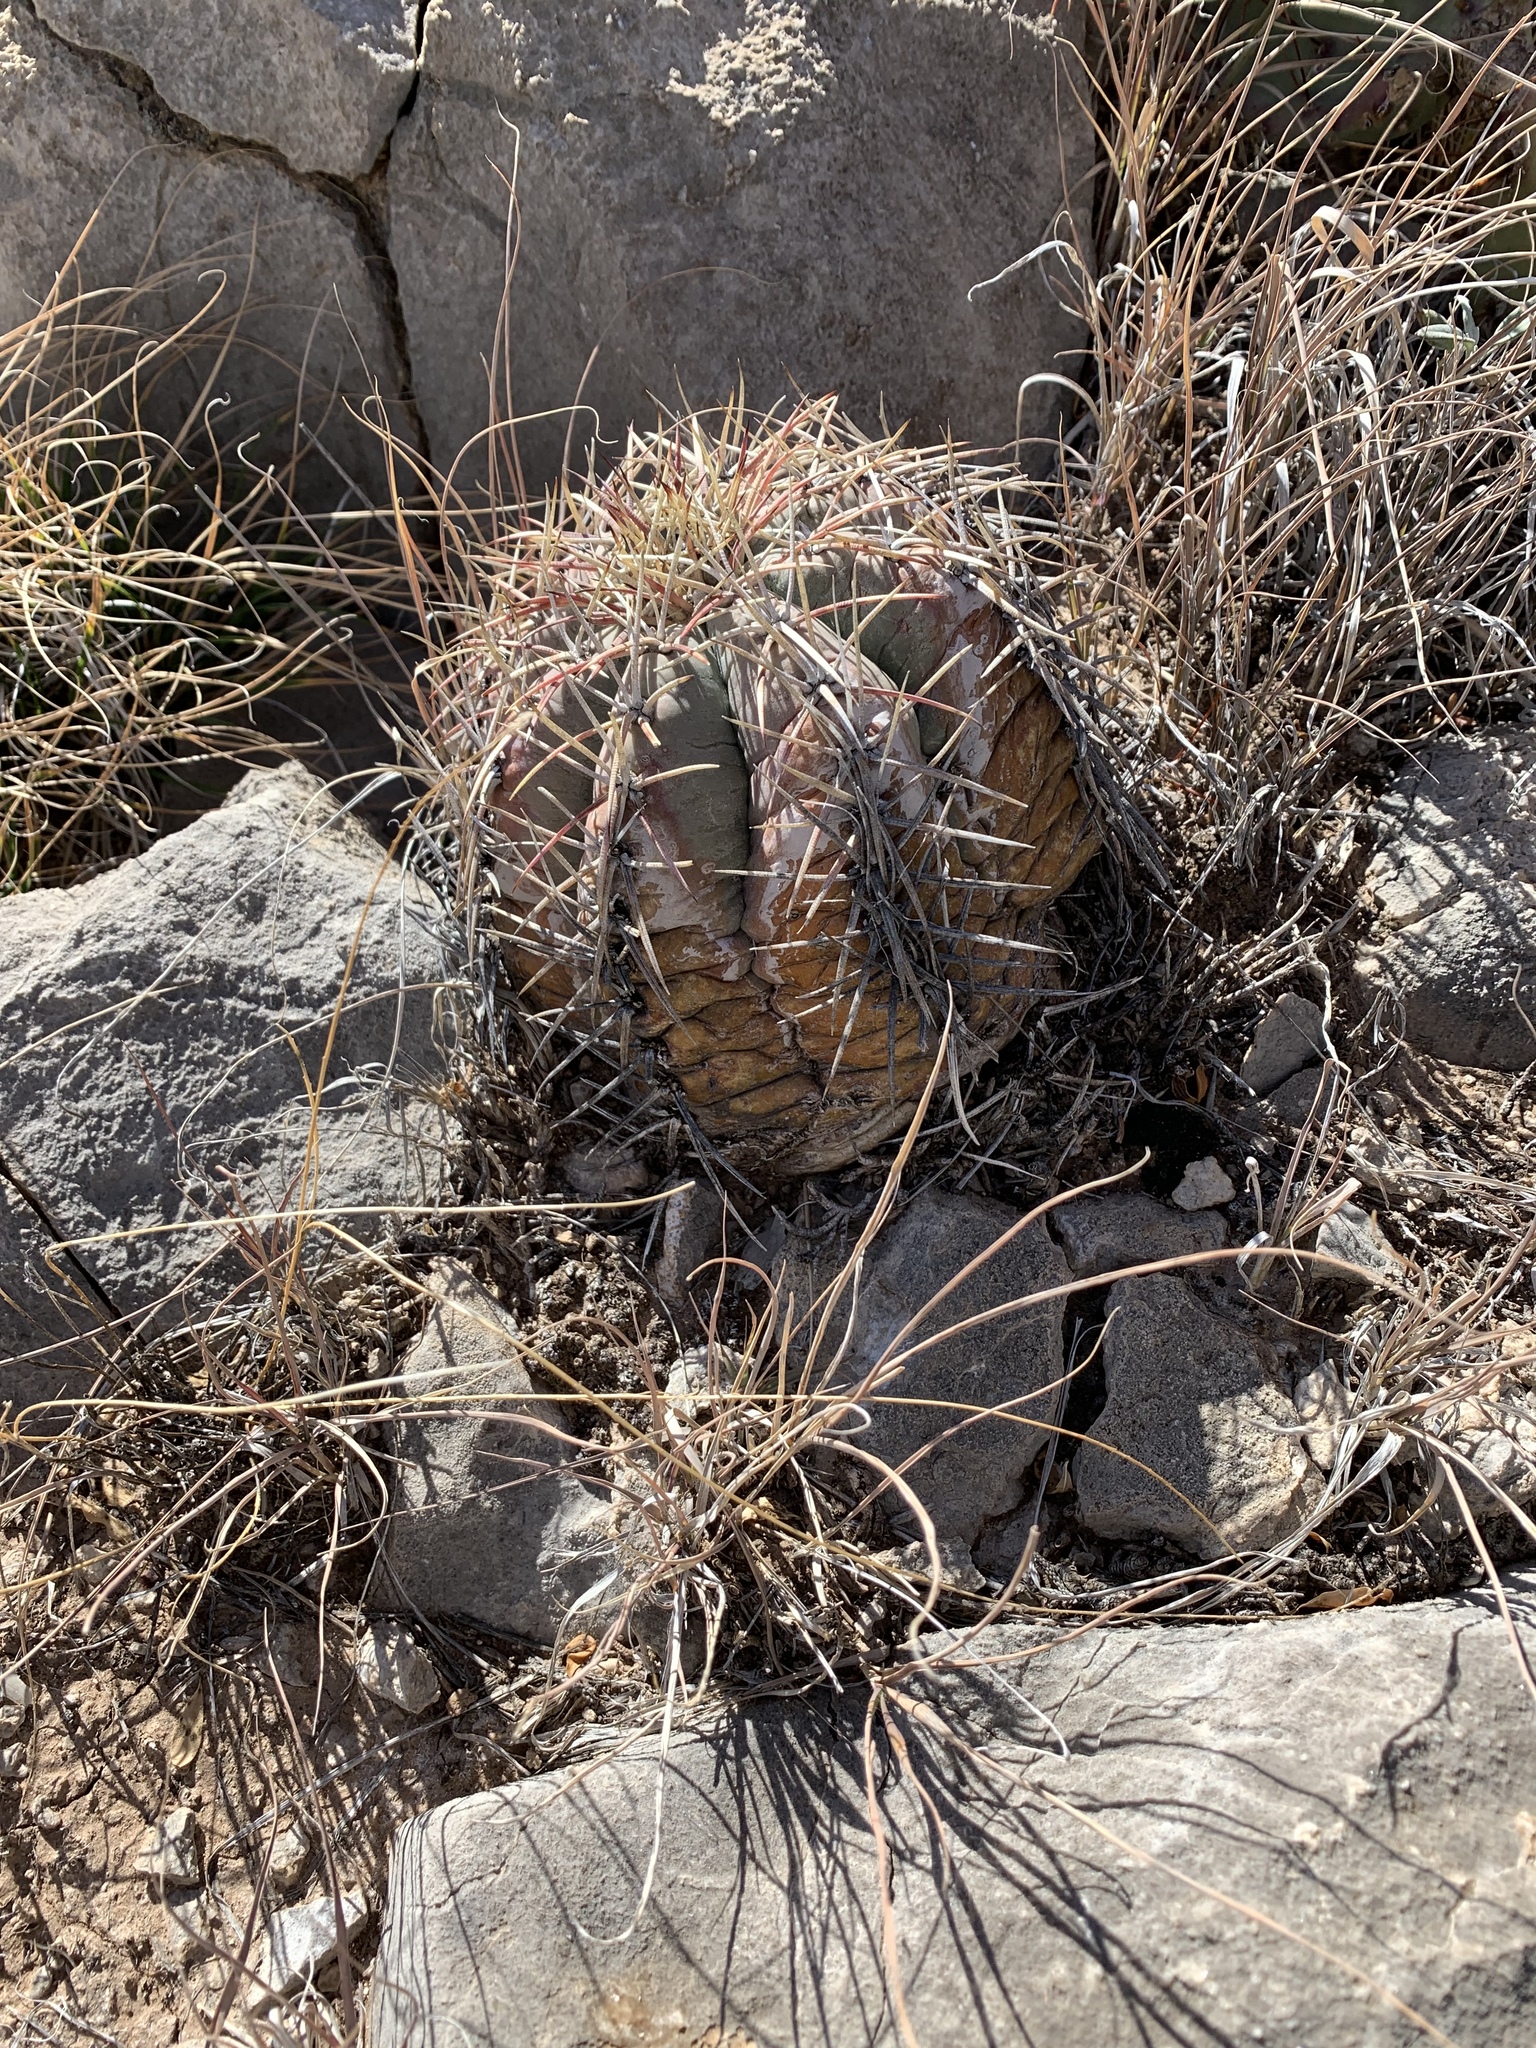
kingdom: Plantae
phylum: Tracheophyta
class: Magnoliopsida
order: Caryophyllales
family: Cactaceae
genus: Echinocactus
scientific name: Echinocactus horizonthalonius
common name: Devilshead
